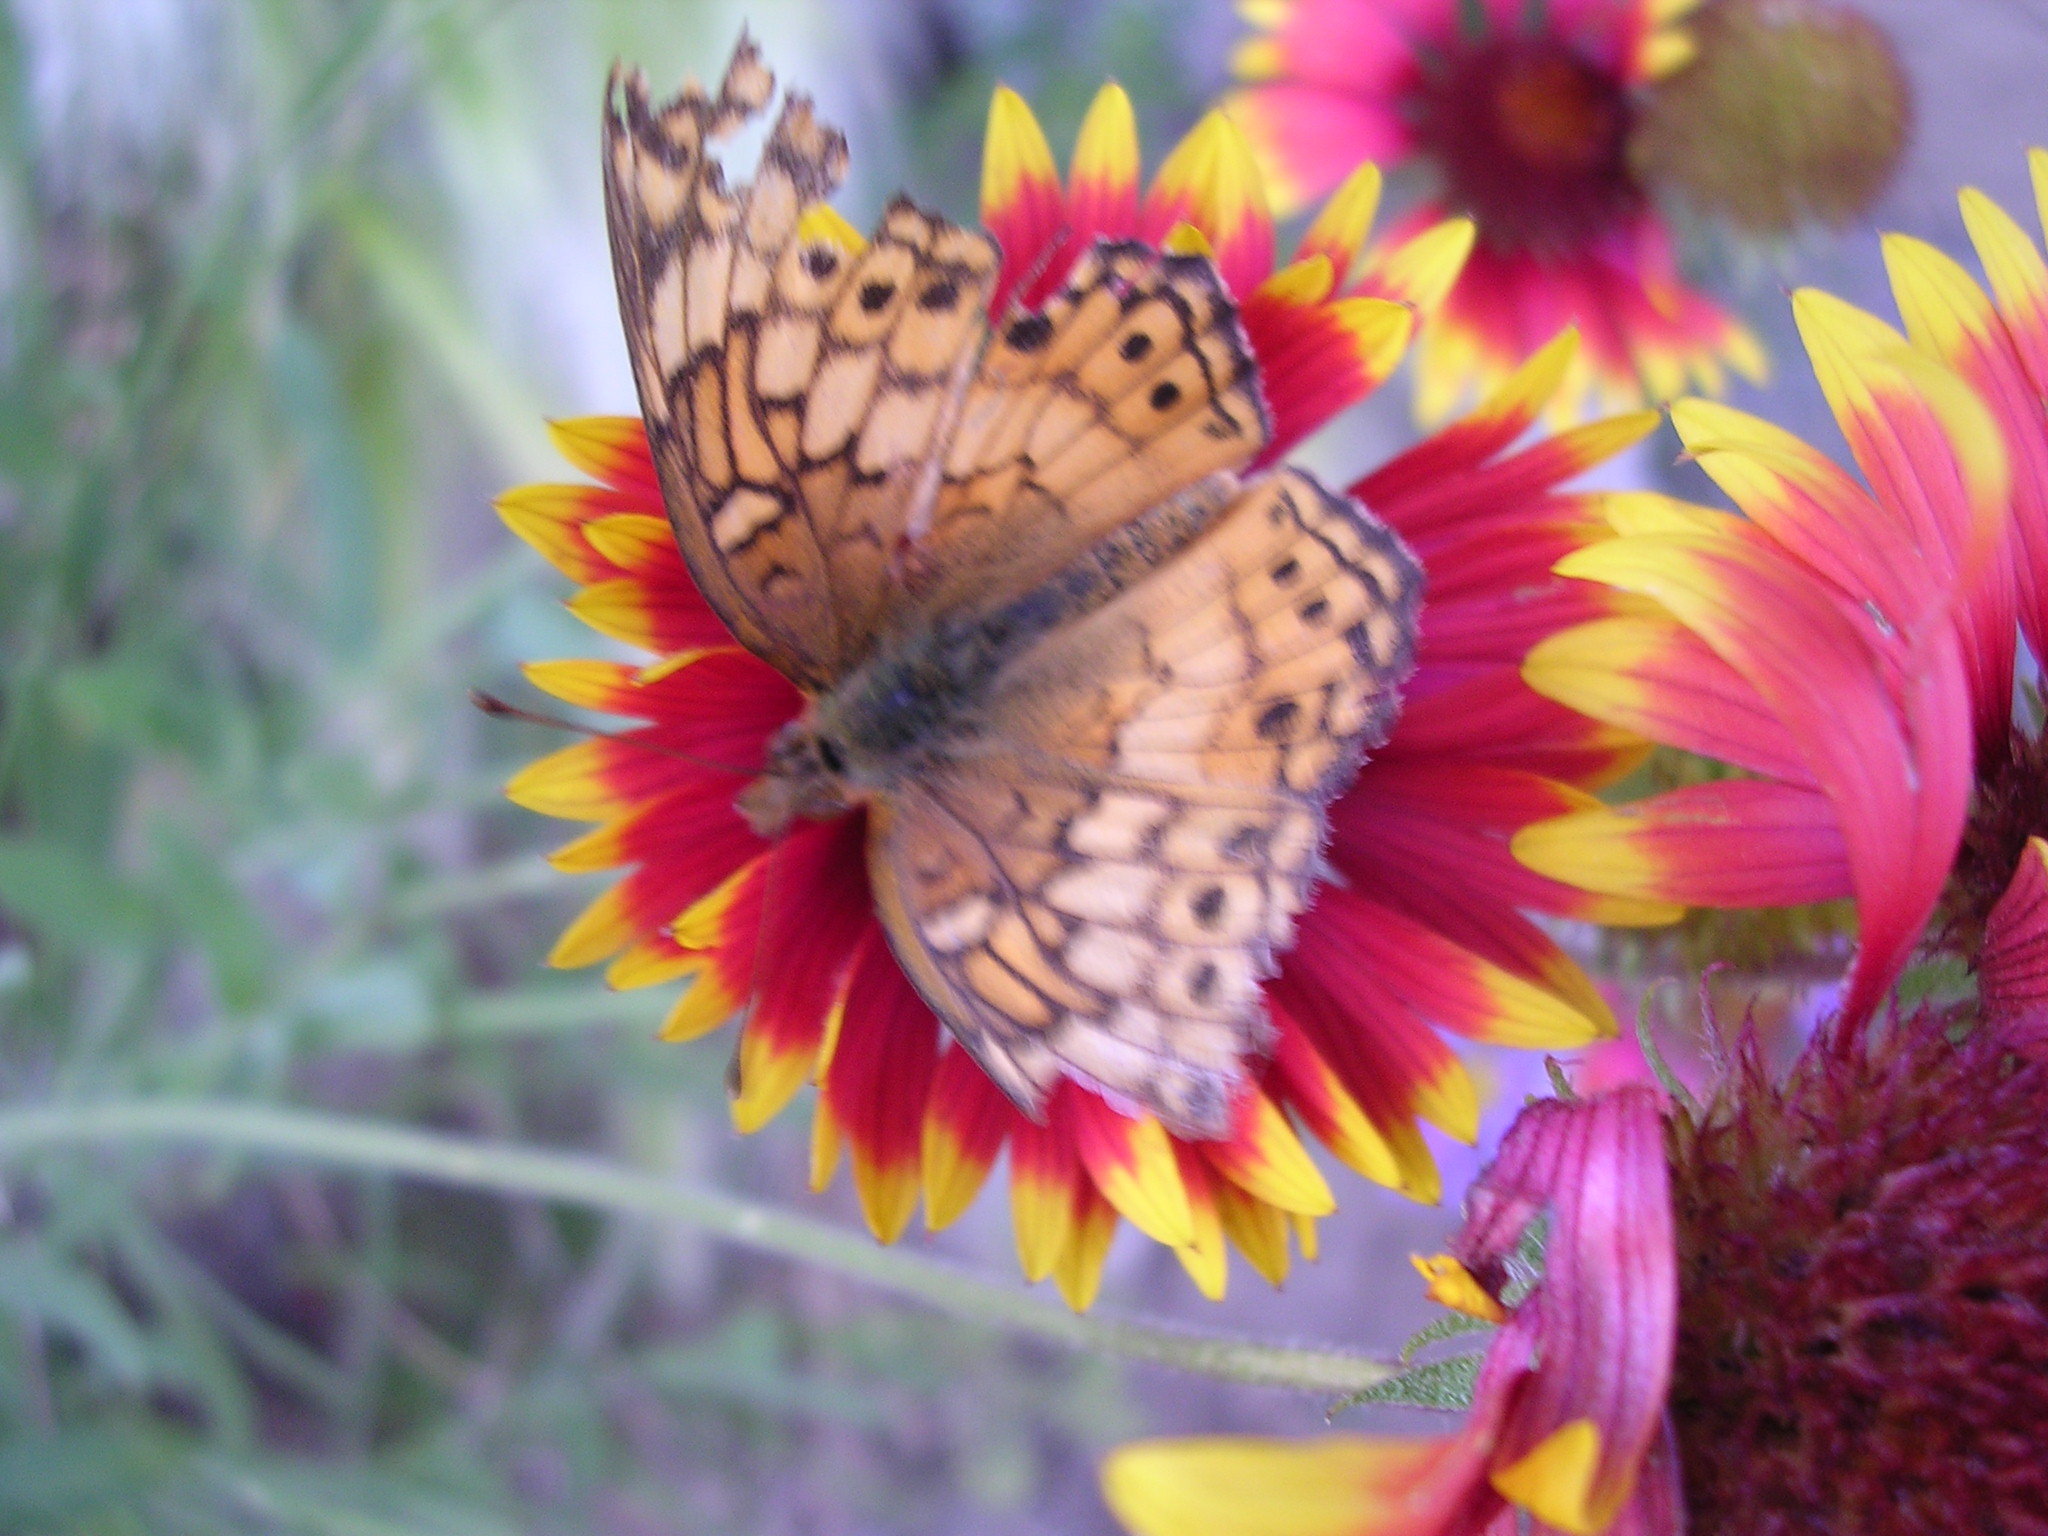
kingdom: Animalia
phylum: Arthropoda
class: Insecta
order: Lepidoptera
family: Nymphalidae
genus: Euptoieta
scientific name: Euptoieta claudia
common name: Variegated fritillary
